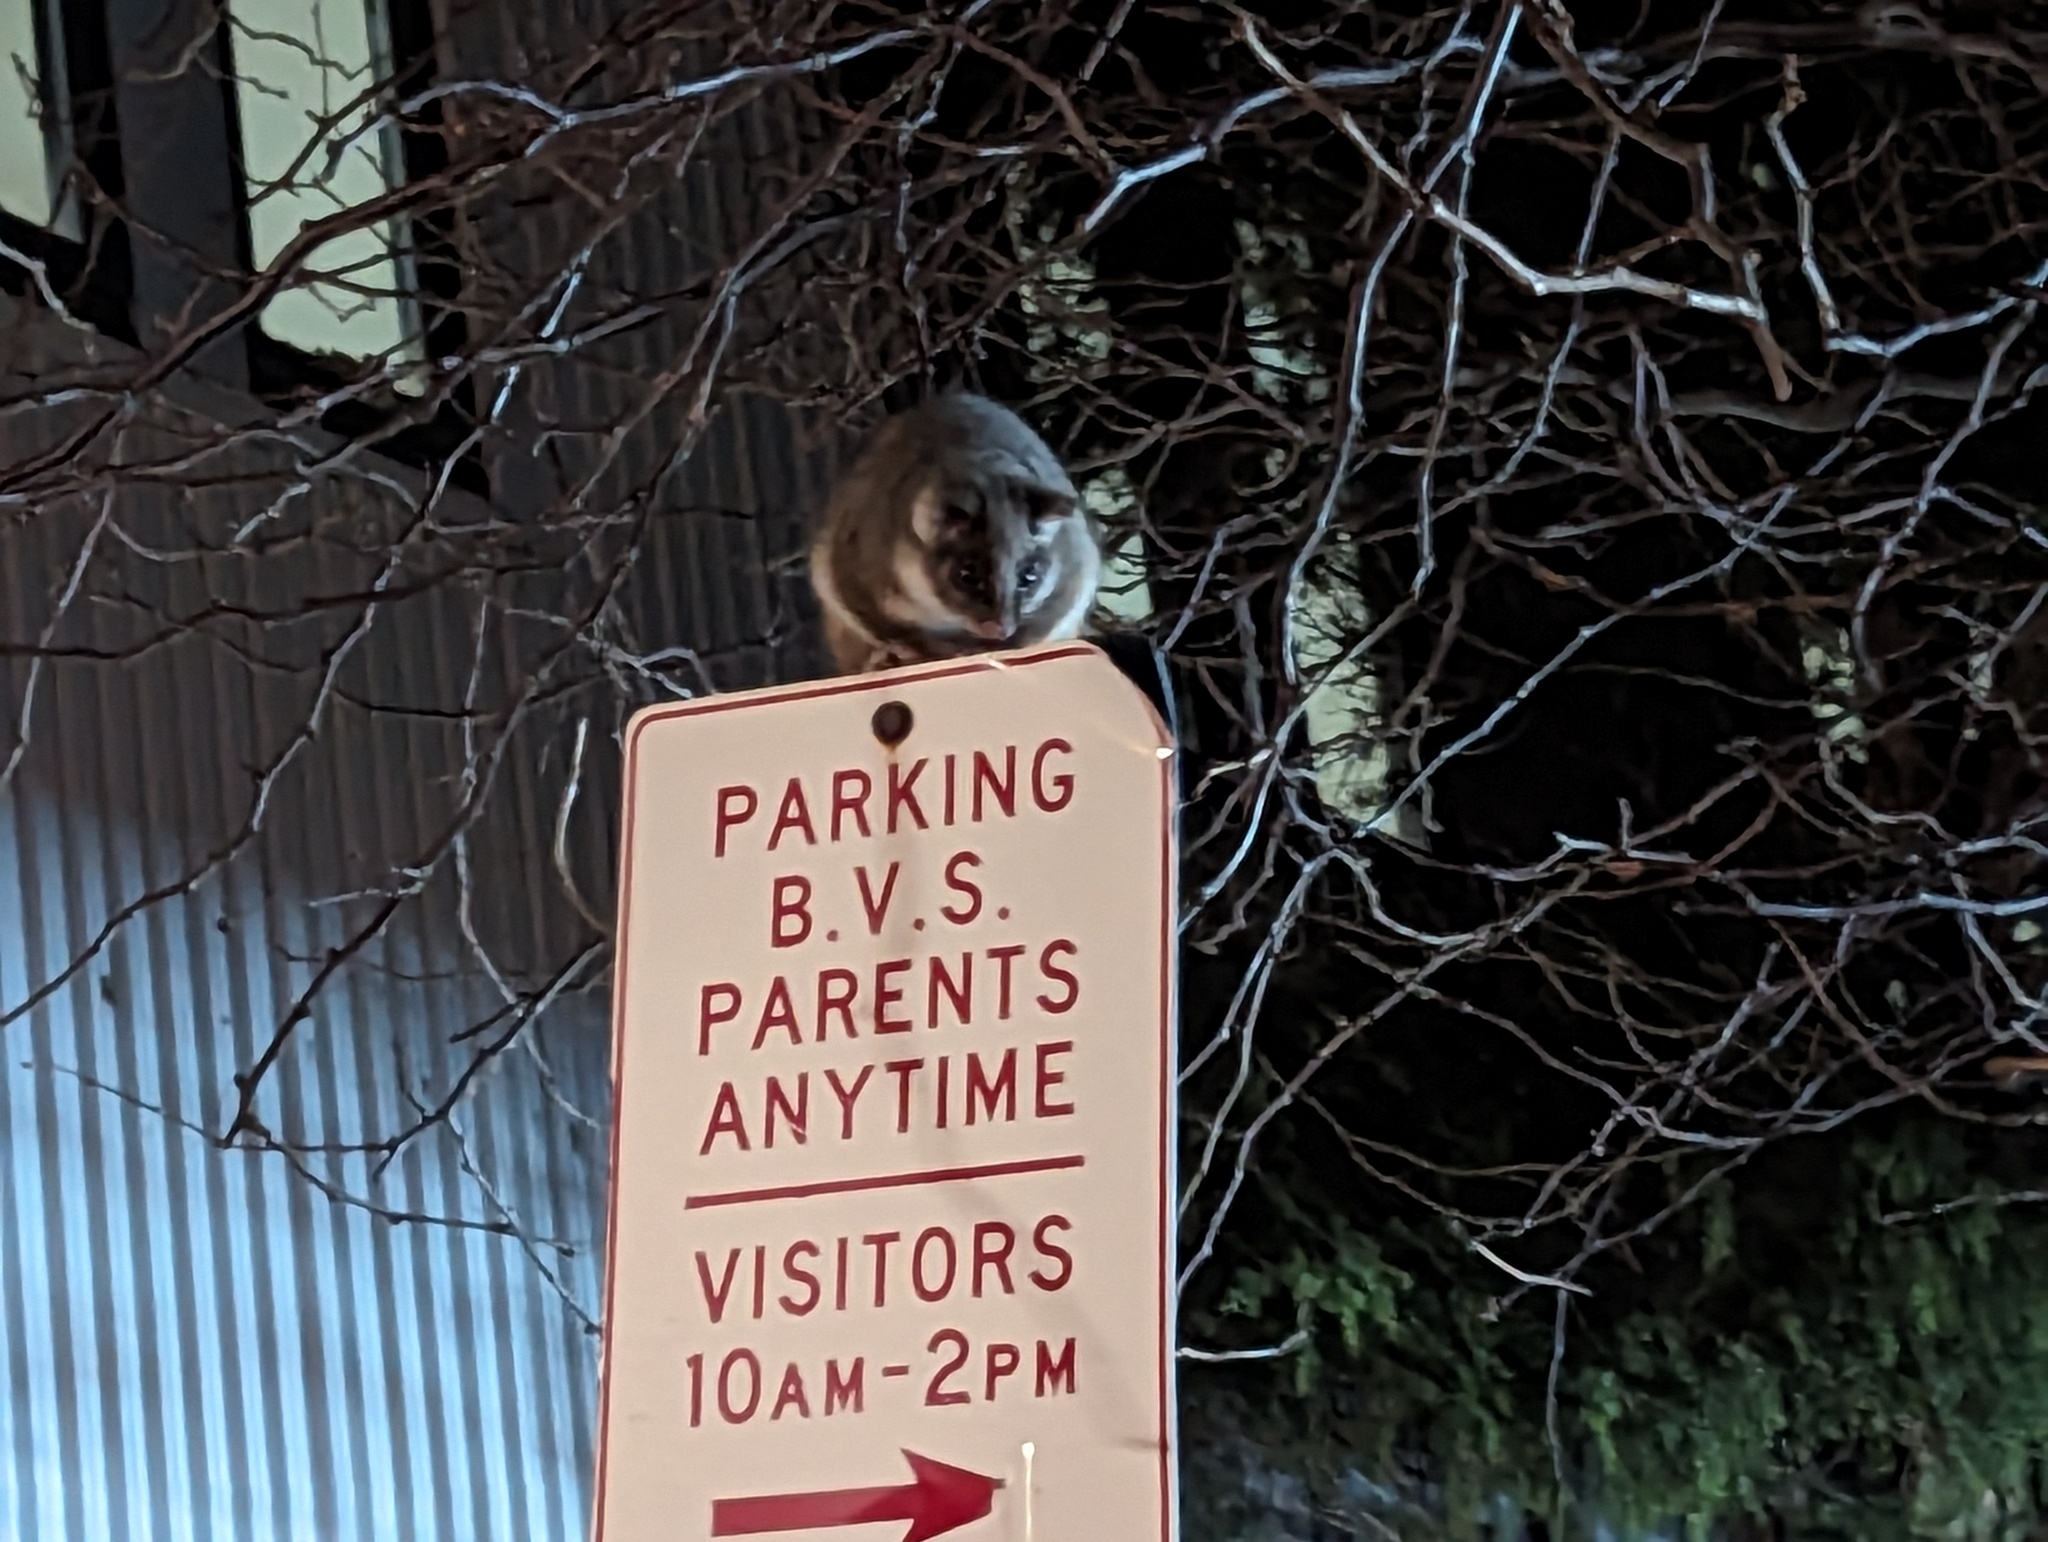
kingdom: Animalia
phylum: Chordata
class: Mammalia
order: Diprotodontia
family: Pseudocheiridae
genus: Pseudocheirus
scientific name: Pseudocheirus peregrinus
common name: Common ringtail possum
